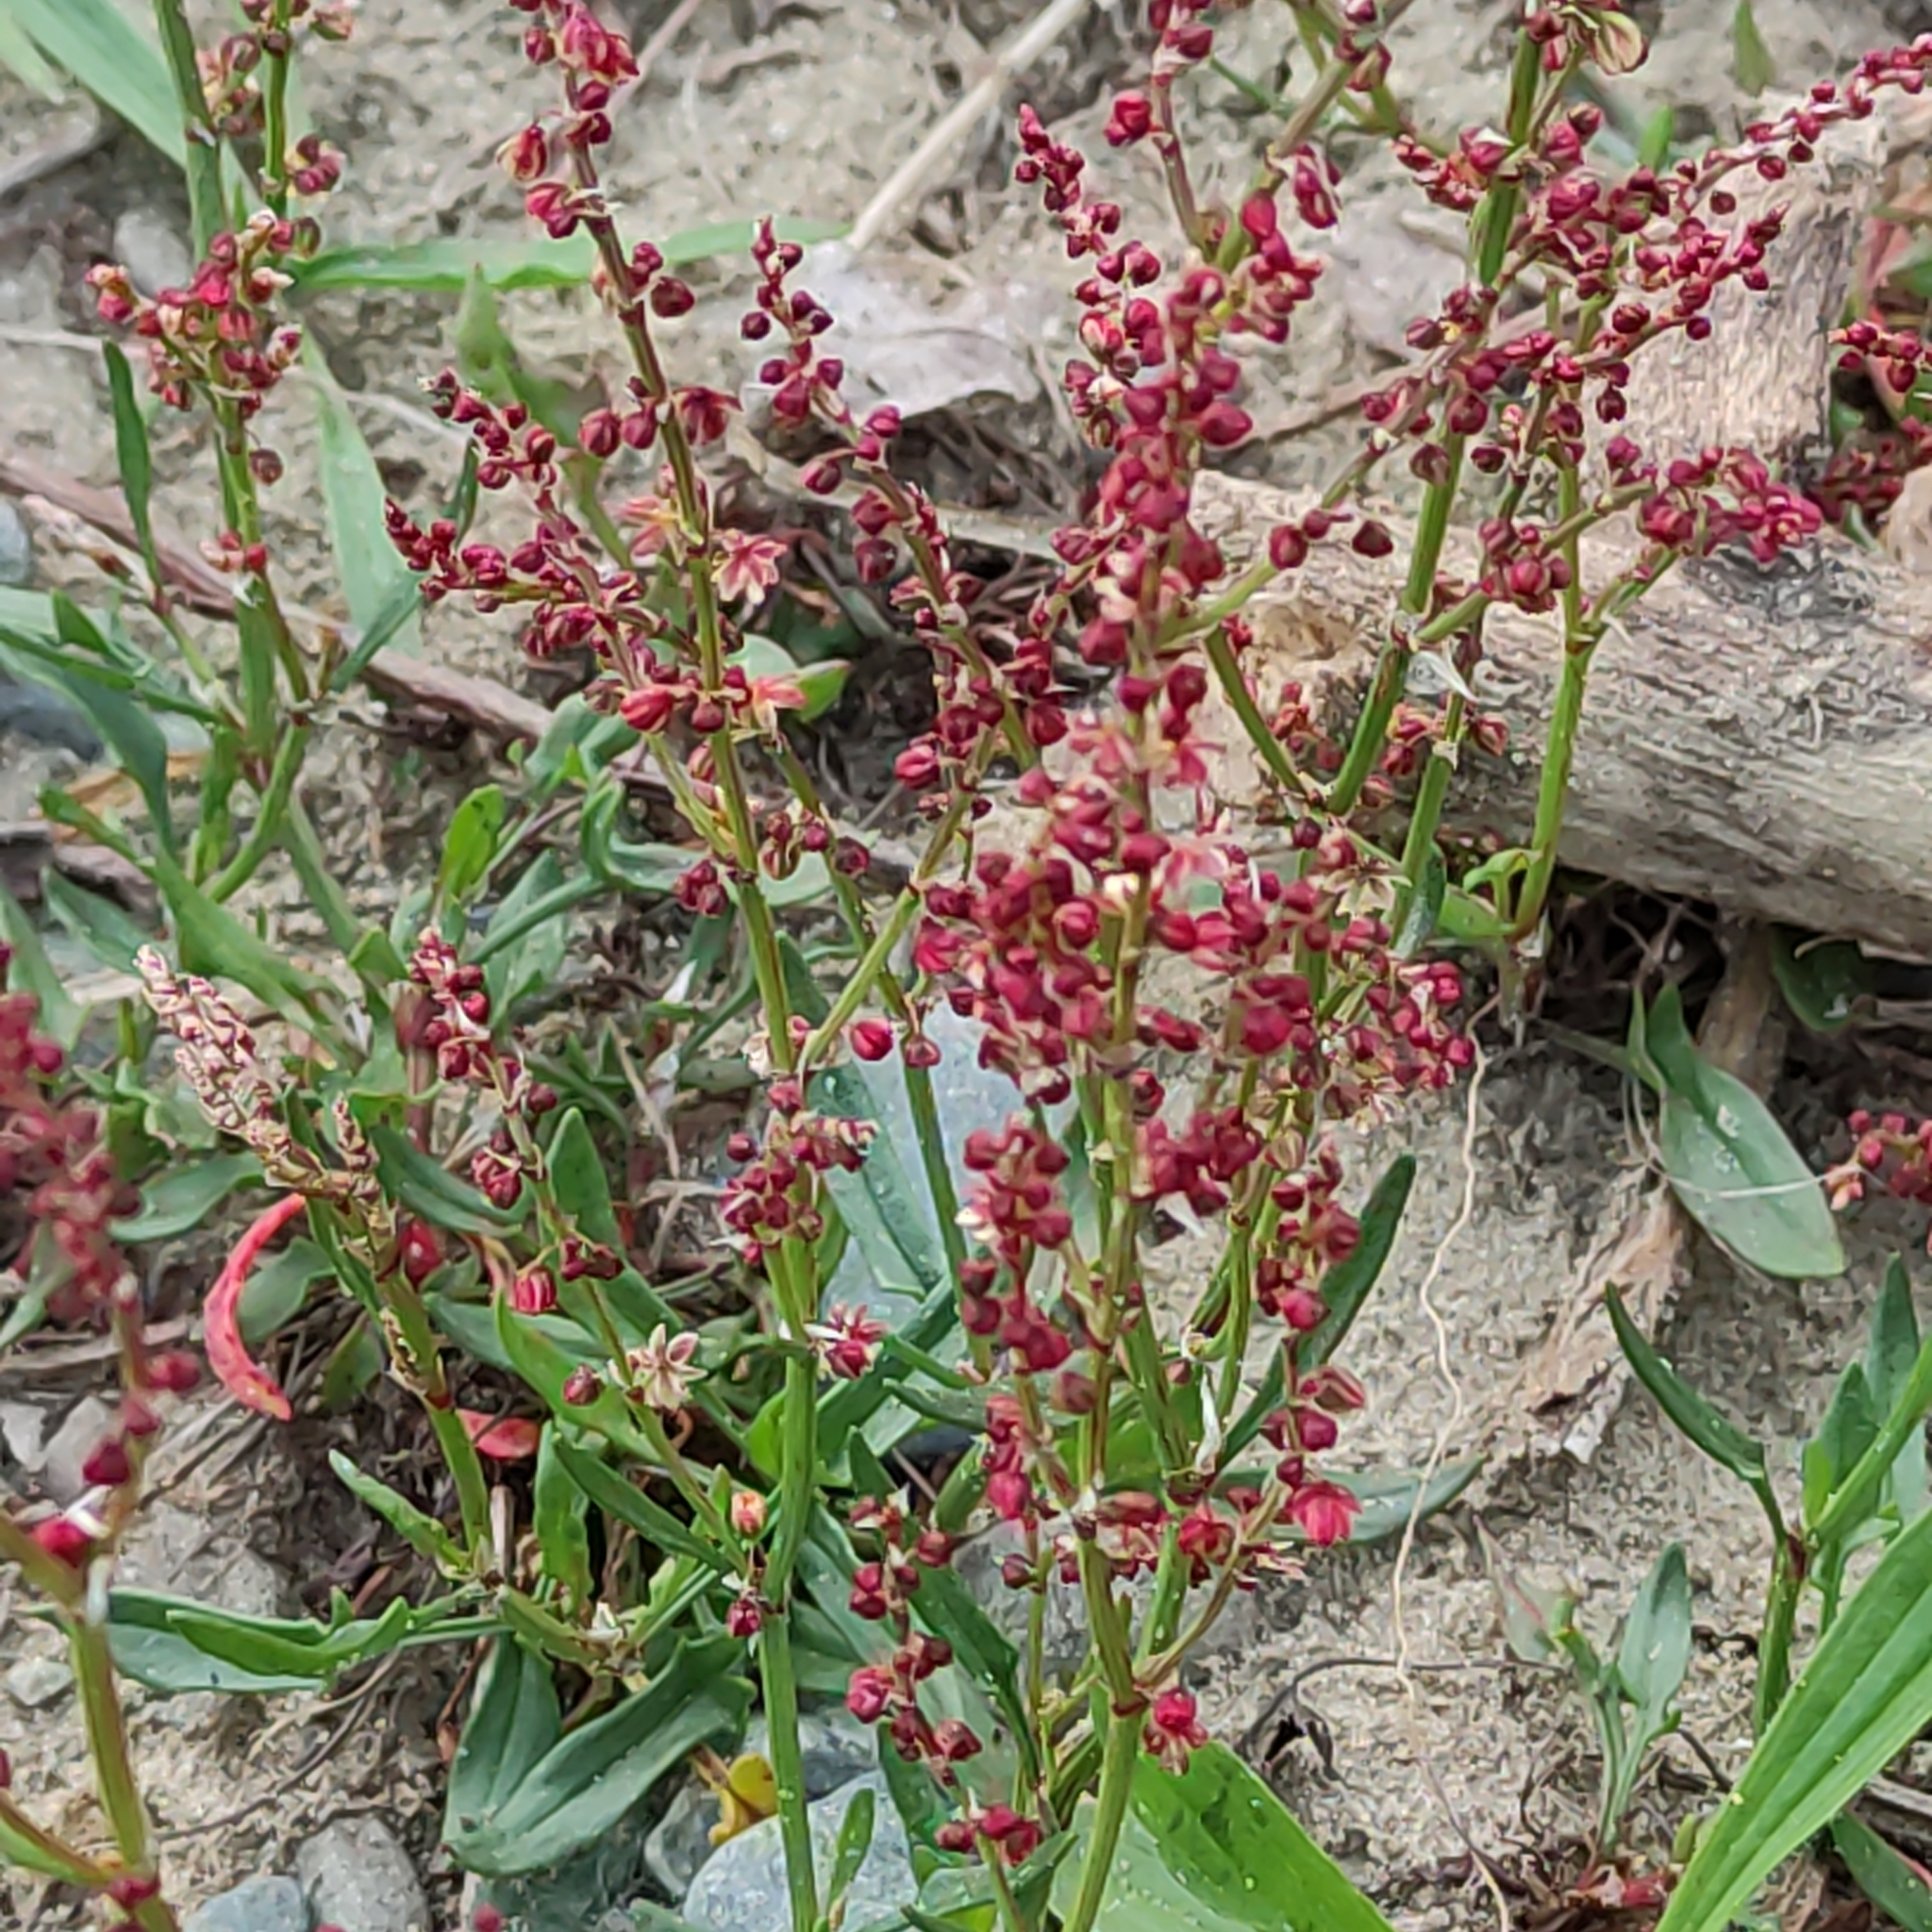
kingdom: Plantae
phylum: Tracheophyta
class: Magnoliopsida
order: Caryophyllales
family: Polygonaceae
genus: Rumex
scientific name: Rumex acetosella
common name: Common sheep sorrel
